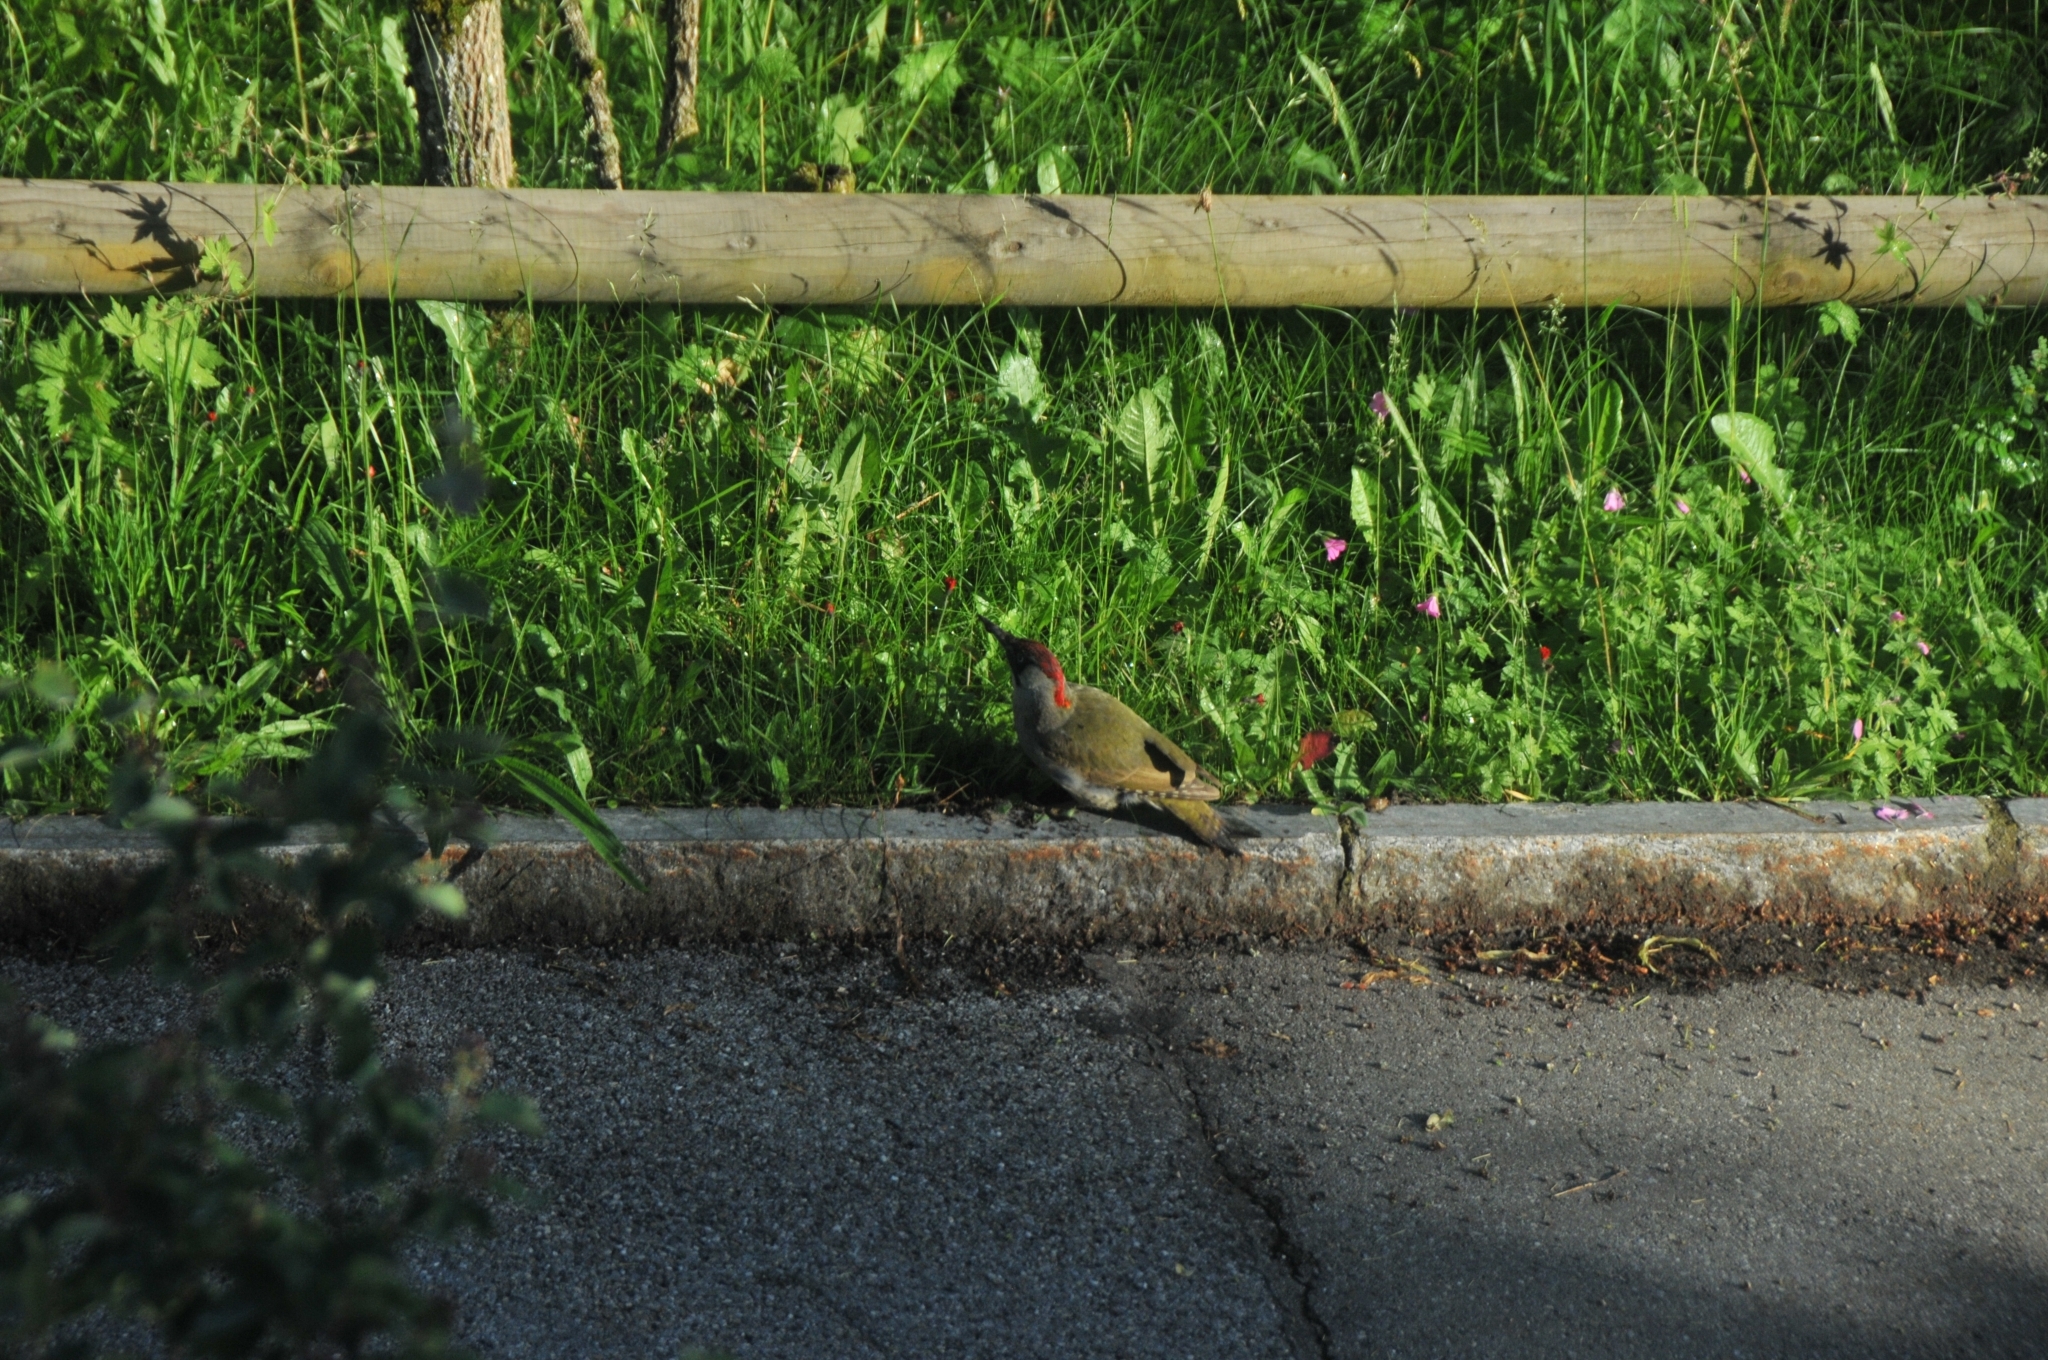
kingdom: Animalia
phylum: Chordata
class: Aves
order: Piciformes
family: Picidae
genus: Picus
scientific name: Picus viridis
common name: European green woodpecker
